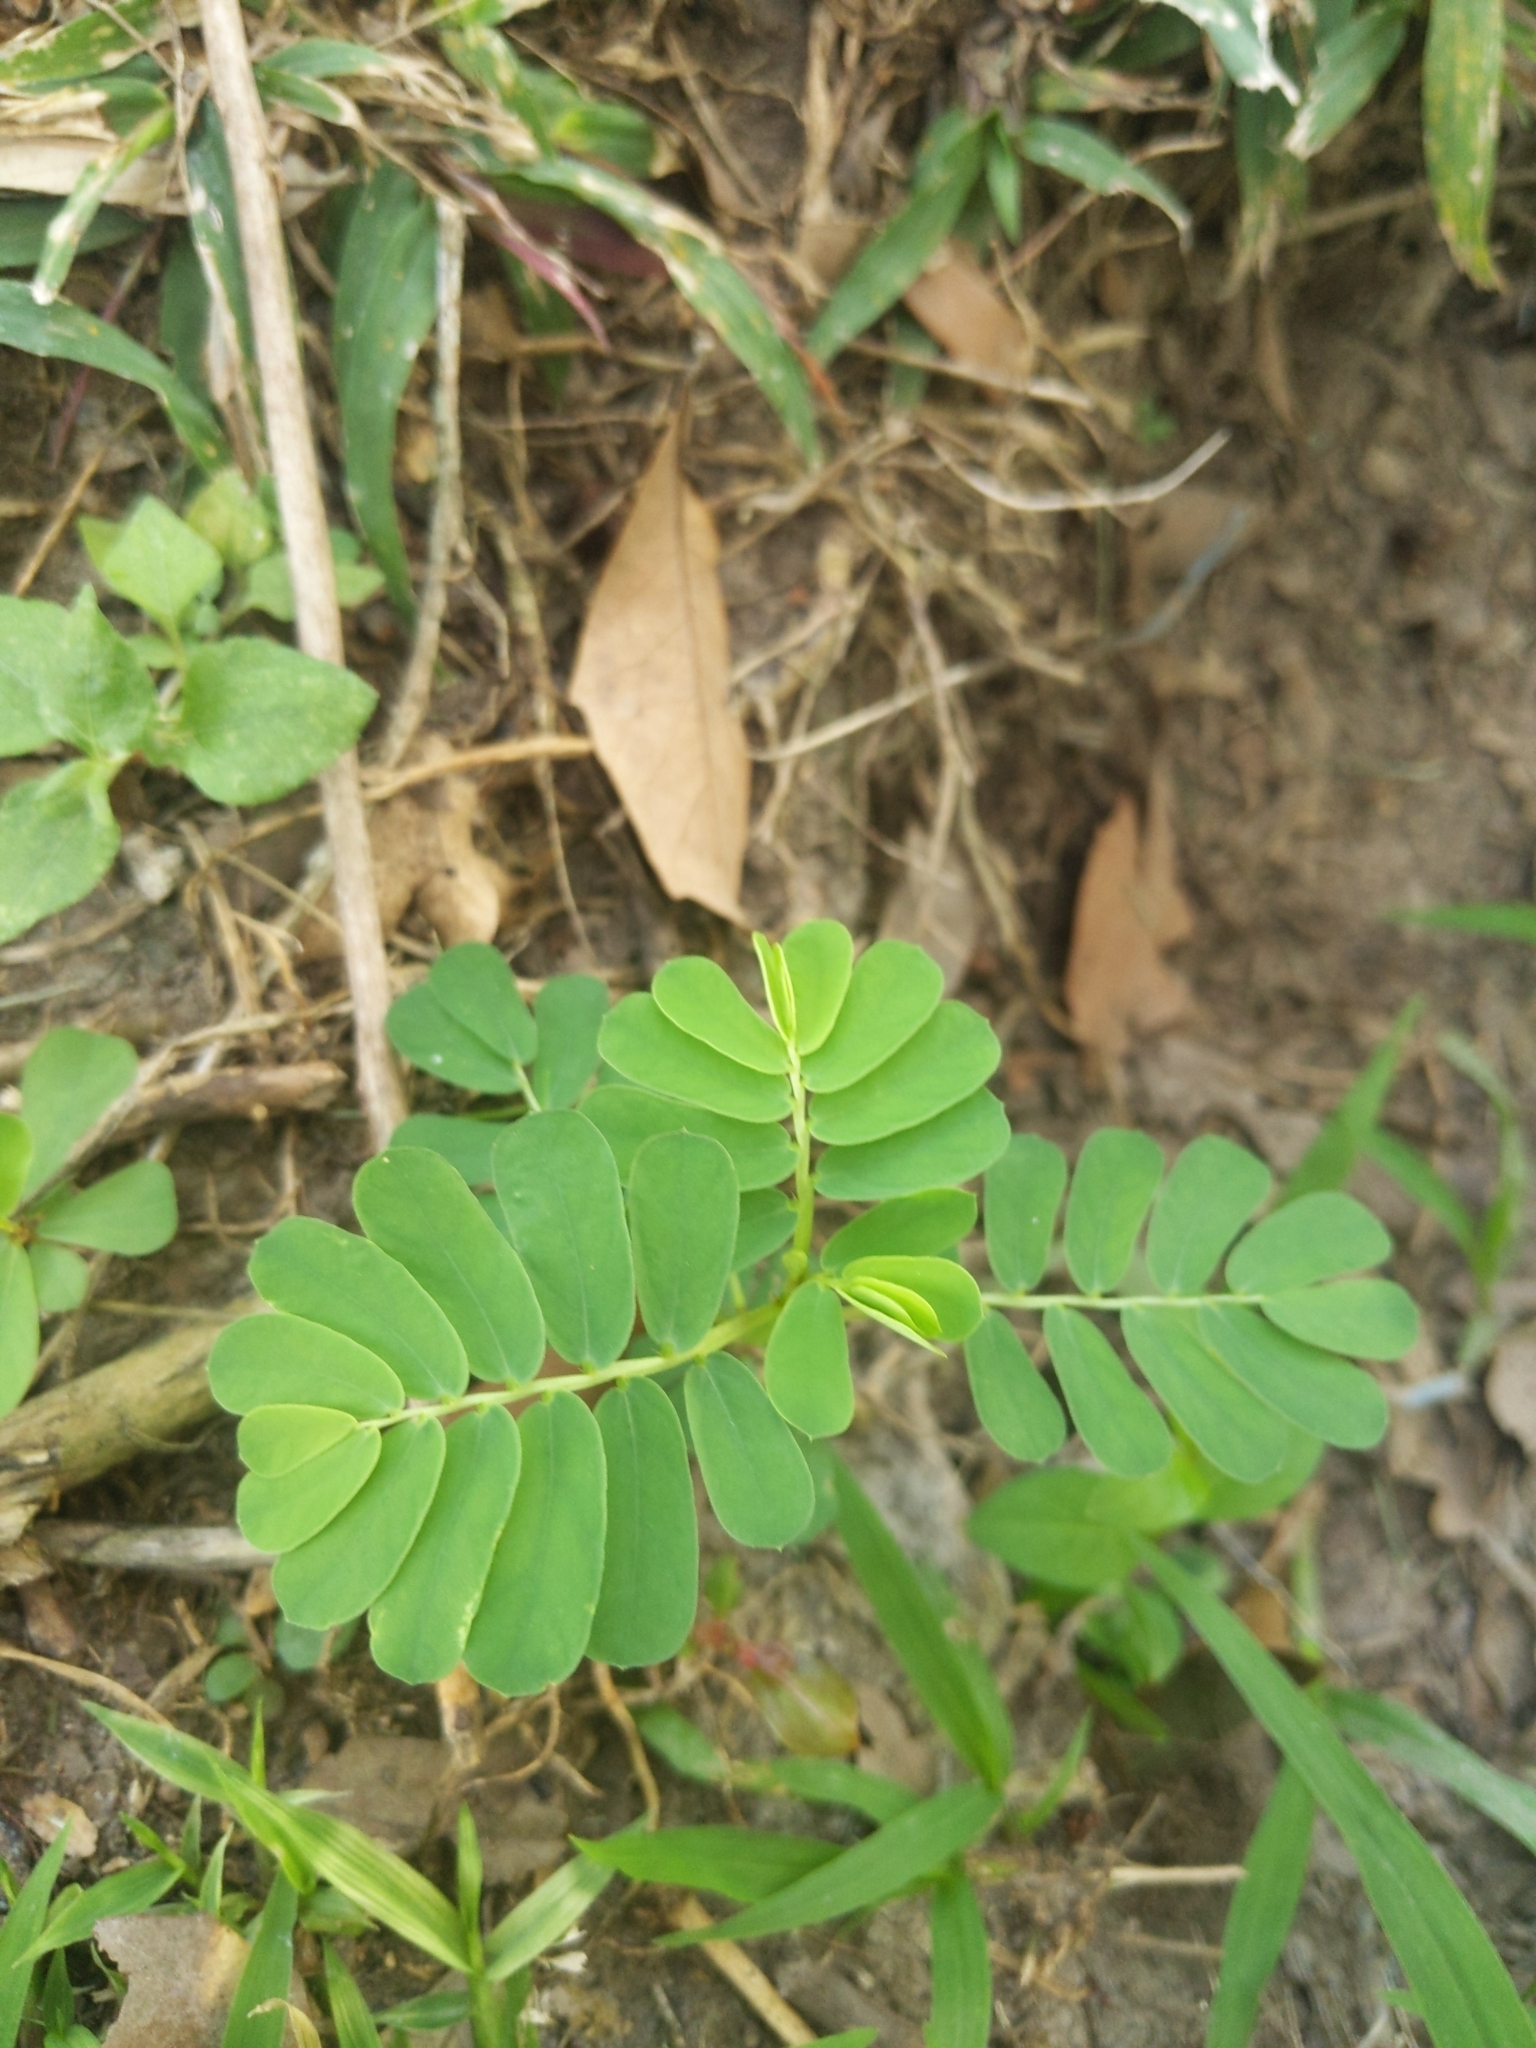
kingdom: Plantae
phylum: Tracheophyta
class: Magnoliopsida
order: Malpighiales
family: Phyllanthaceae
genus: Phyllanthus
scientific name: Phyllanthus urinaria
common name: Chamber bitter
